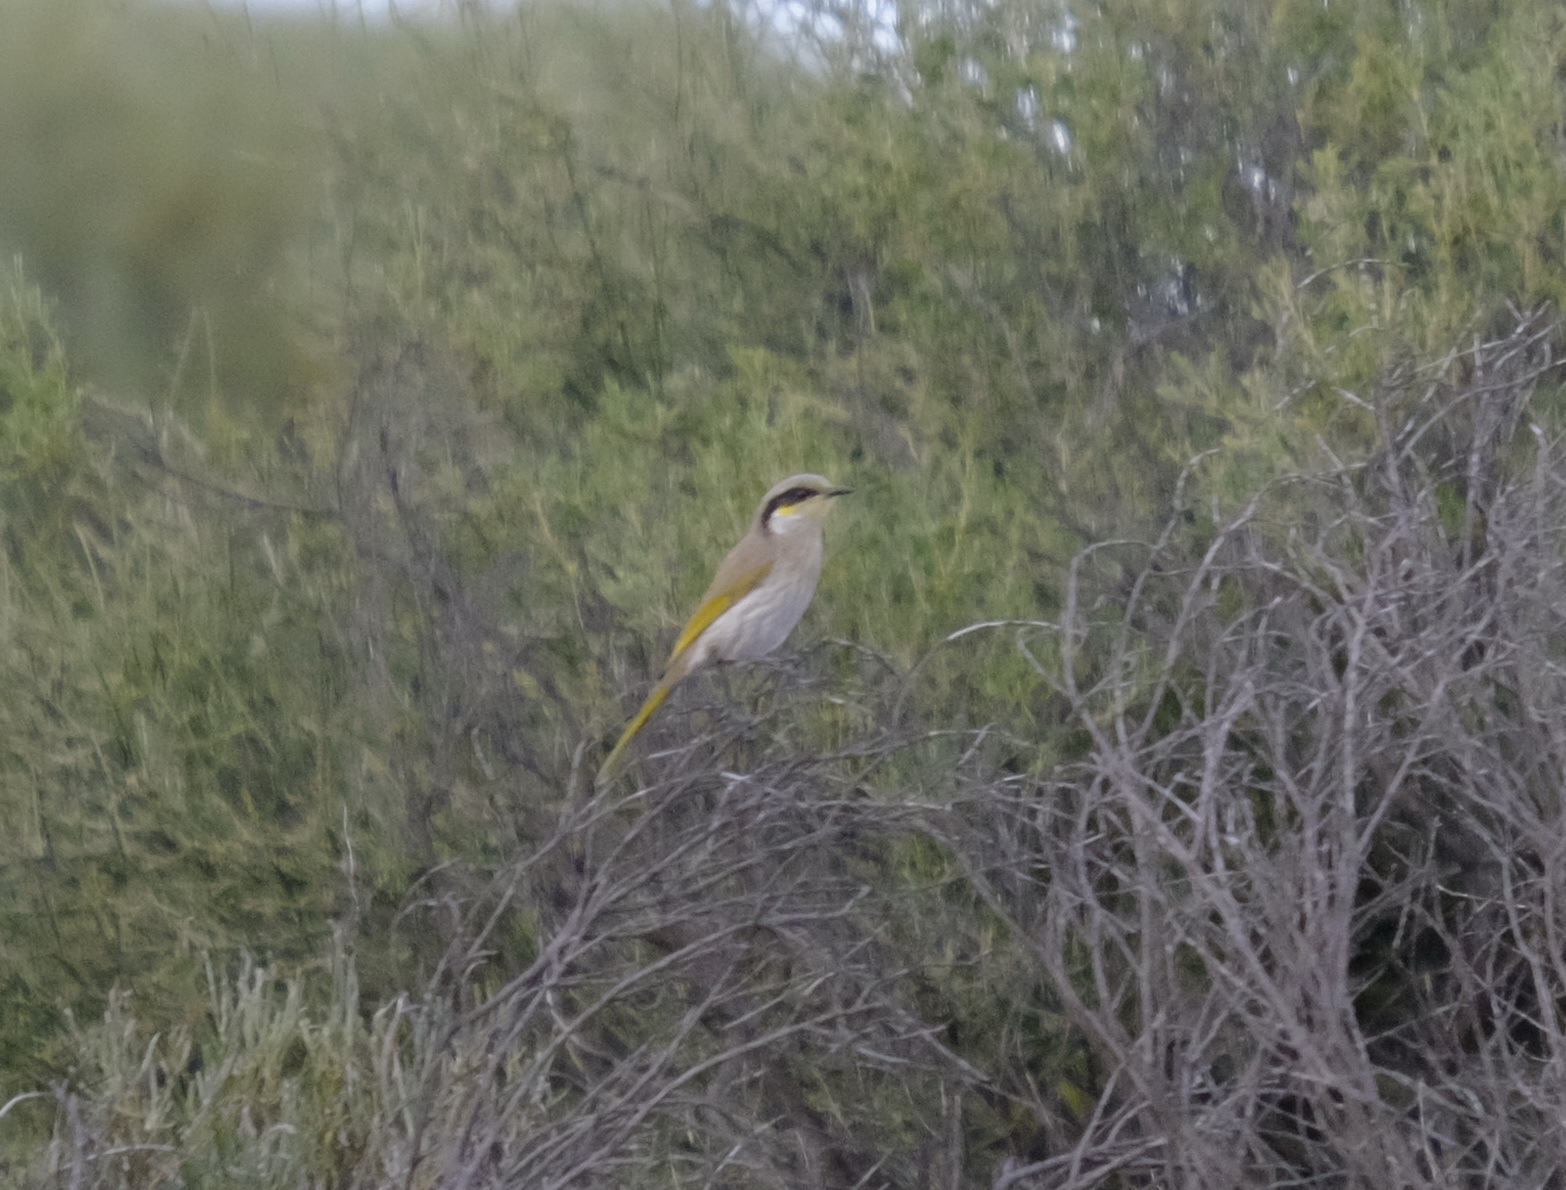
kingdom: Animalia
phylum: Chordata
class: Aves
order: Passeriformes
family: Meliphagidae
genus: Gavicalis
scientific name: Gavicalis virescens
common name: Singing honeyeater
